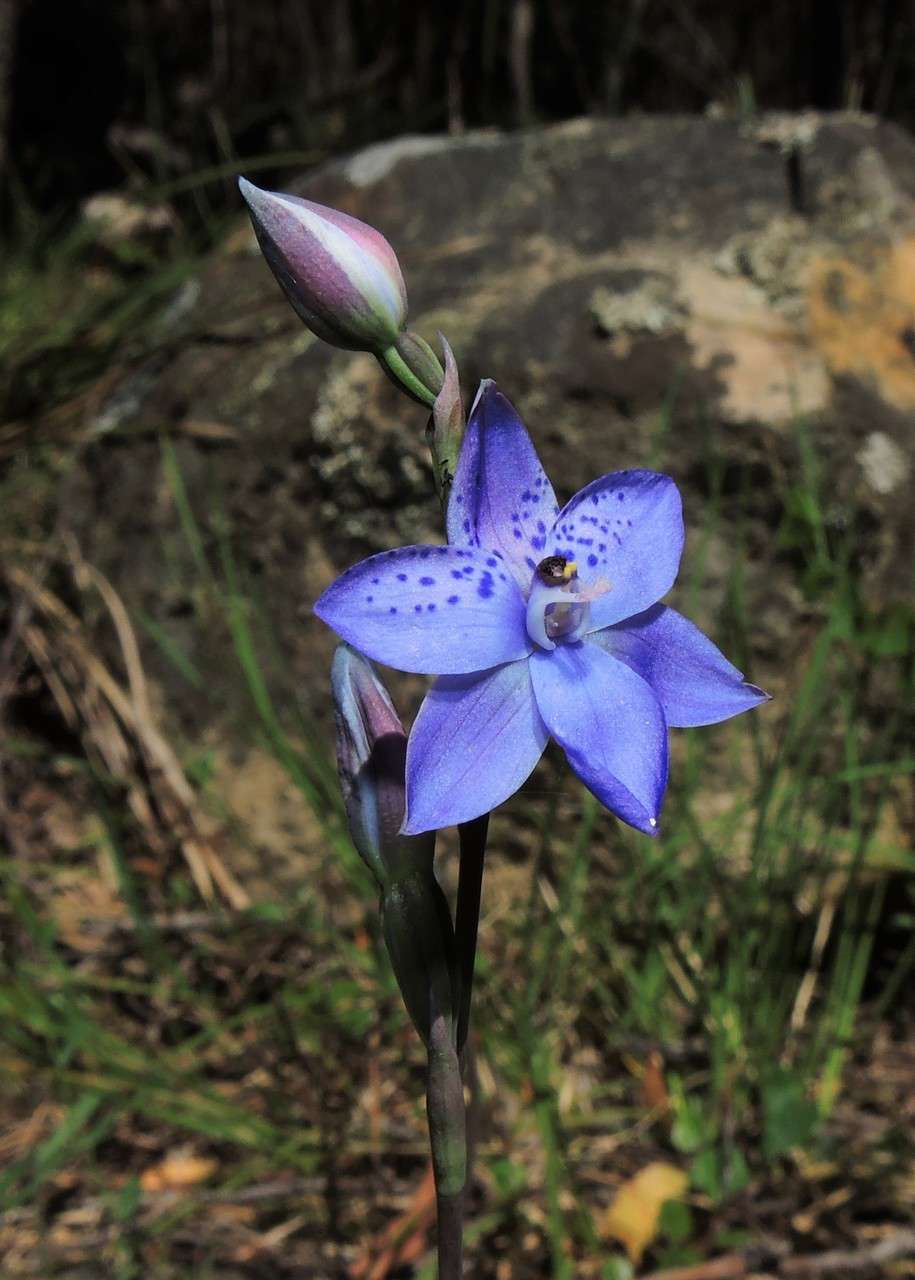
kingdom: Plantae
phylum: Tracheophyta
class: Liliopsida
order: Asparagales
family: Orchidaceae
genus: Thelymitra
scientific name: Thelymitra ixioides
